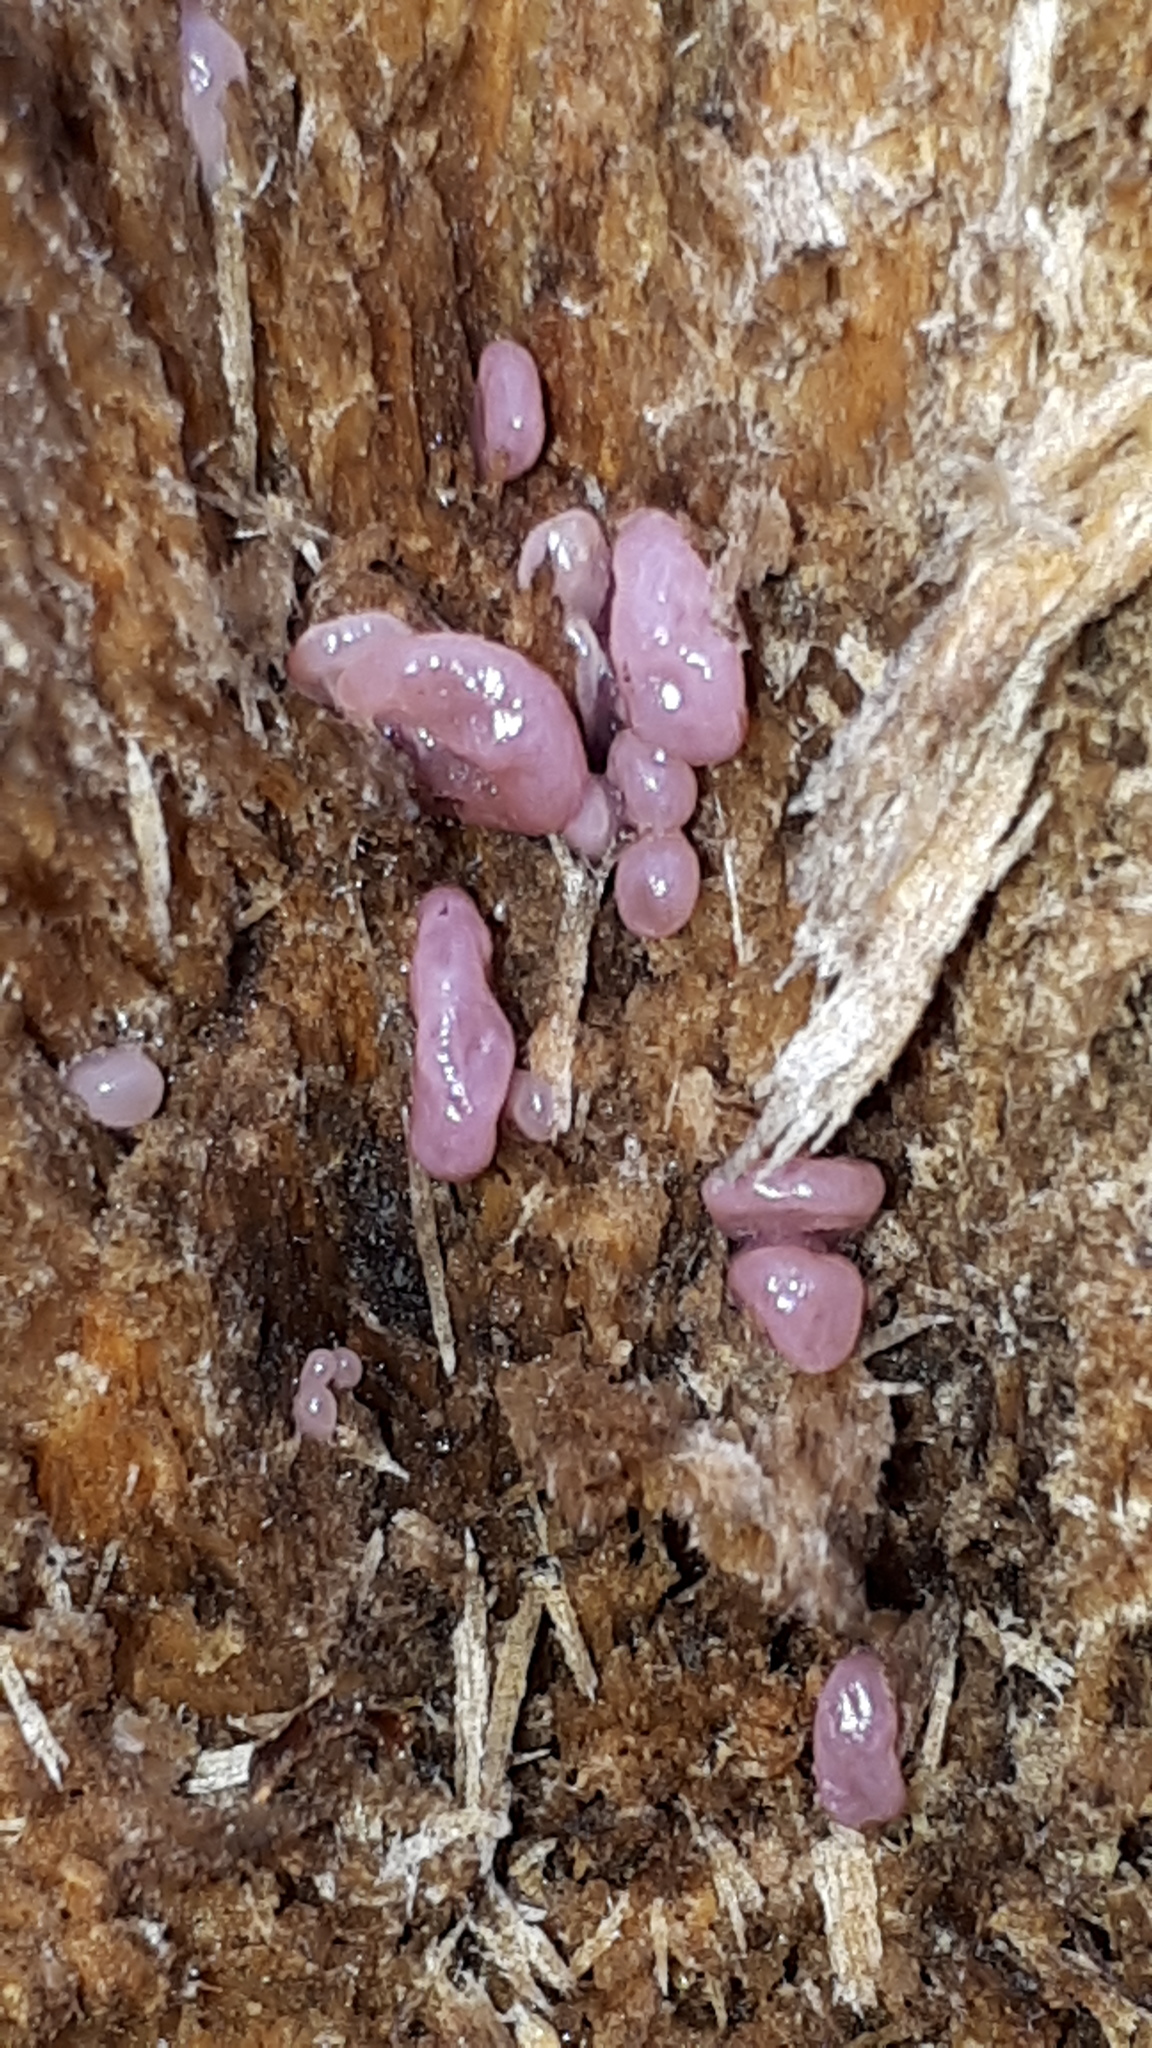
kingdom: Fungi
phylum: Ascomycota
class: Leotiomycetes
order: Helotiales
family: Gelatinodiscaceae
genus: Ascocoryne
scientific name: Ascocoryne sarcoides
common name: Purple jellydisc
